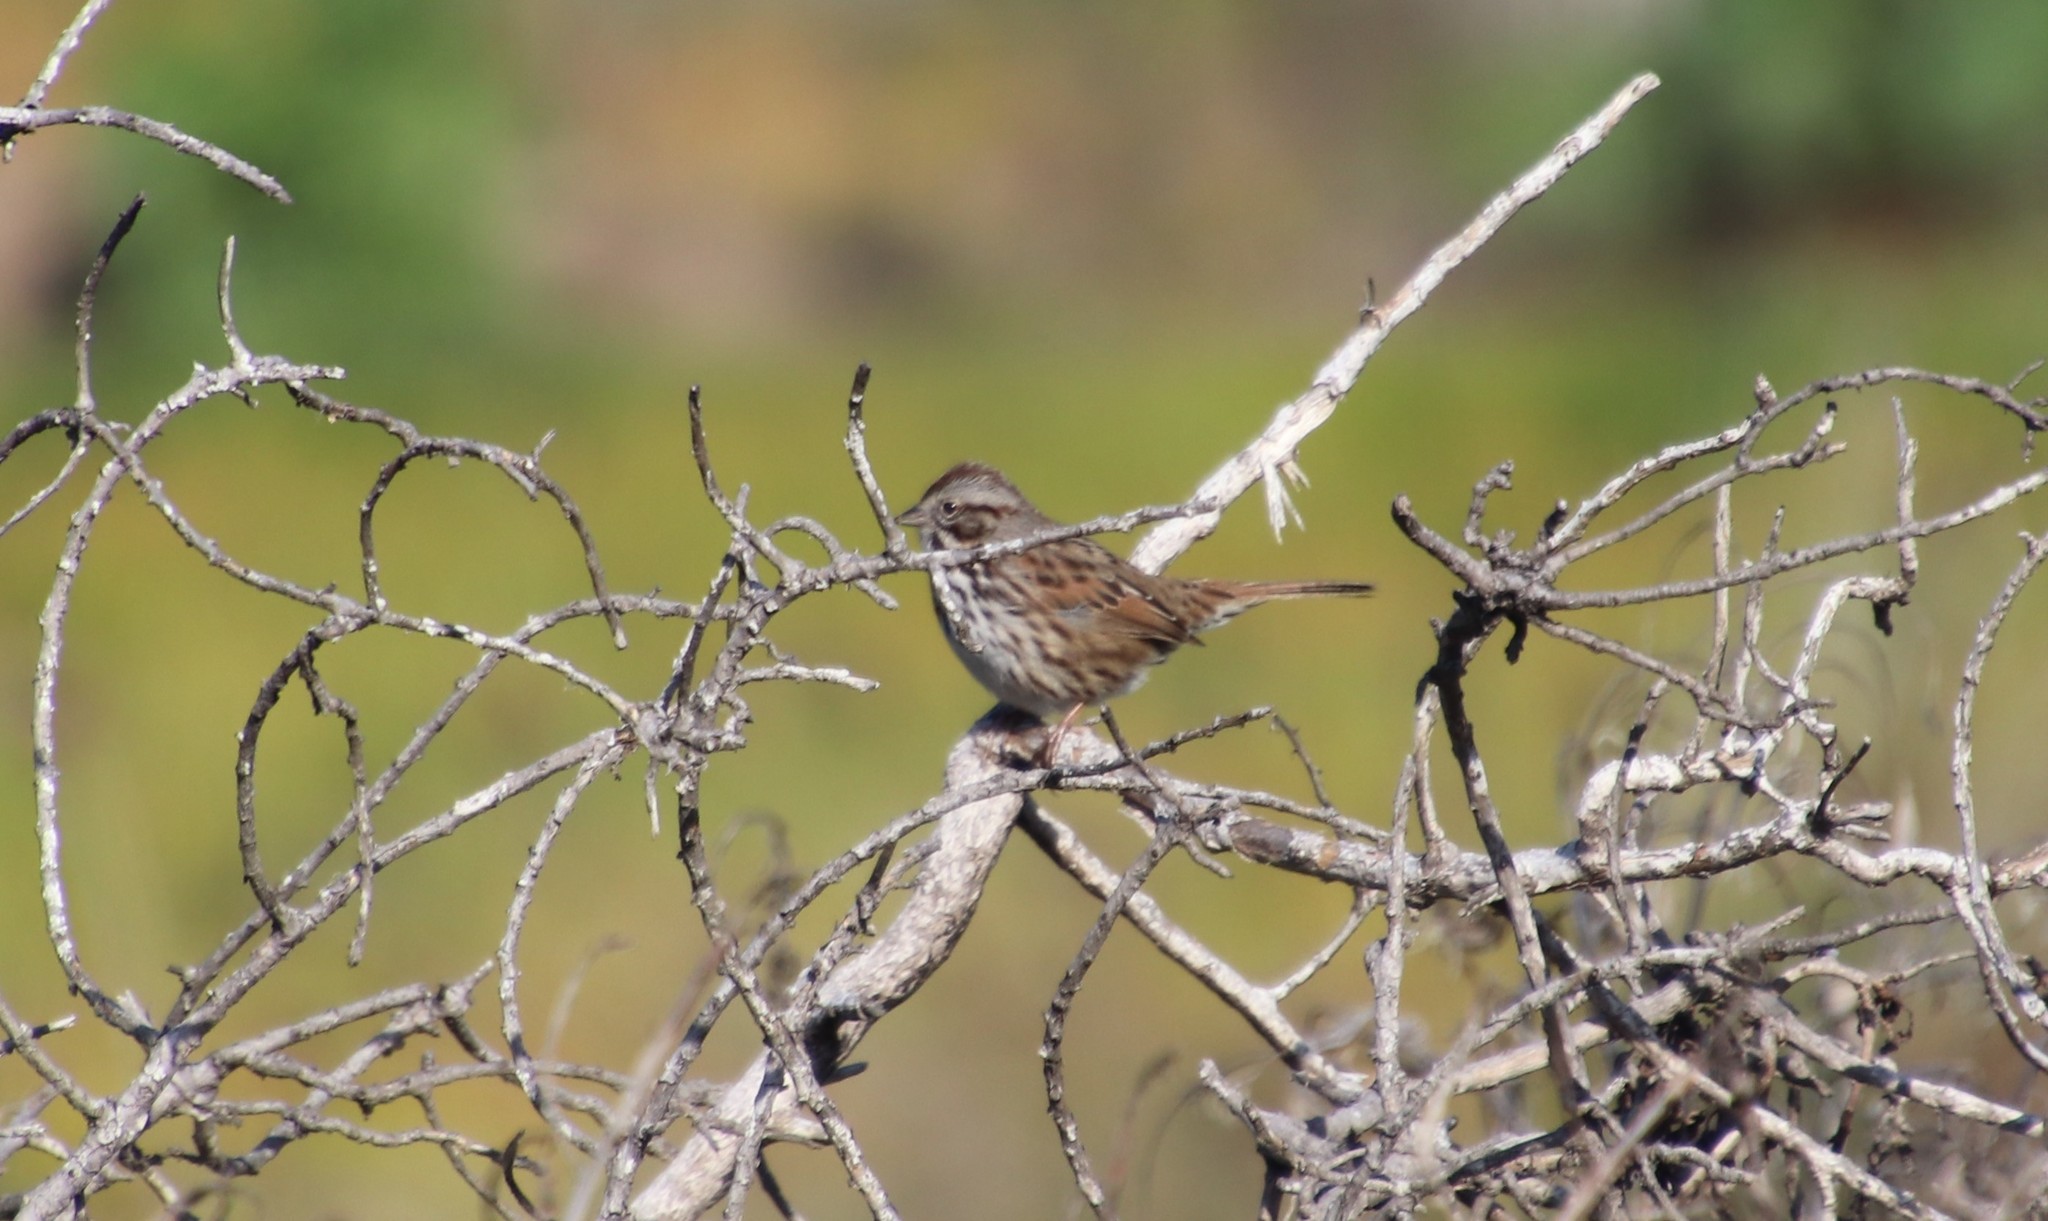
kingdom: Animalia
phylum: Chordata
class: Aves
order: Passeriformes
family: Passerellidae
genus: Melospiza
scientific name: Melospiza melodia
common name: Song sparrow
